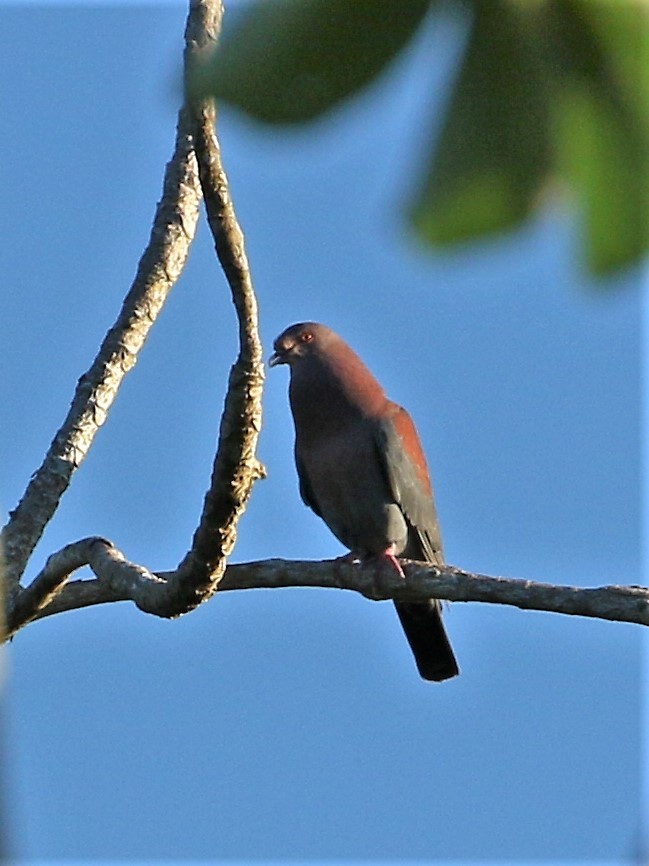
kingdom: Animalia
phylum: Chordata
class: Aves
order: Columbiformes
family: Columbidae
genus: Patagioenas
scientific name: Patagioenas flavirostris
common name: Red-billed pigeon
